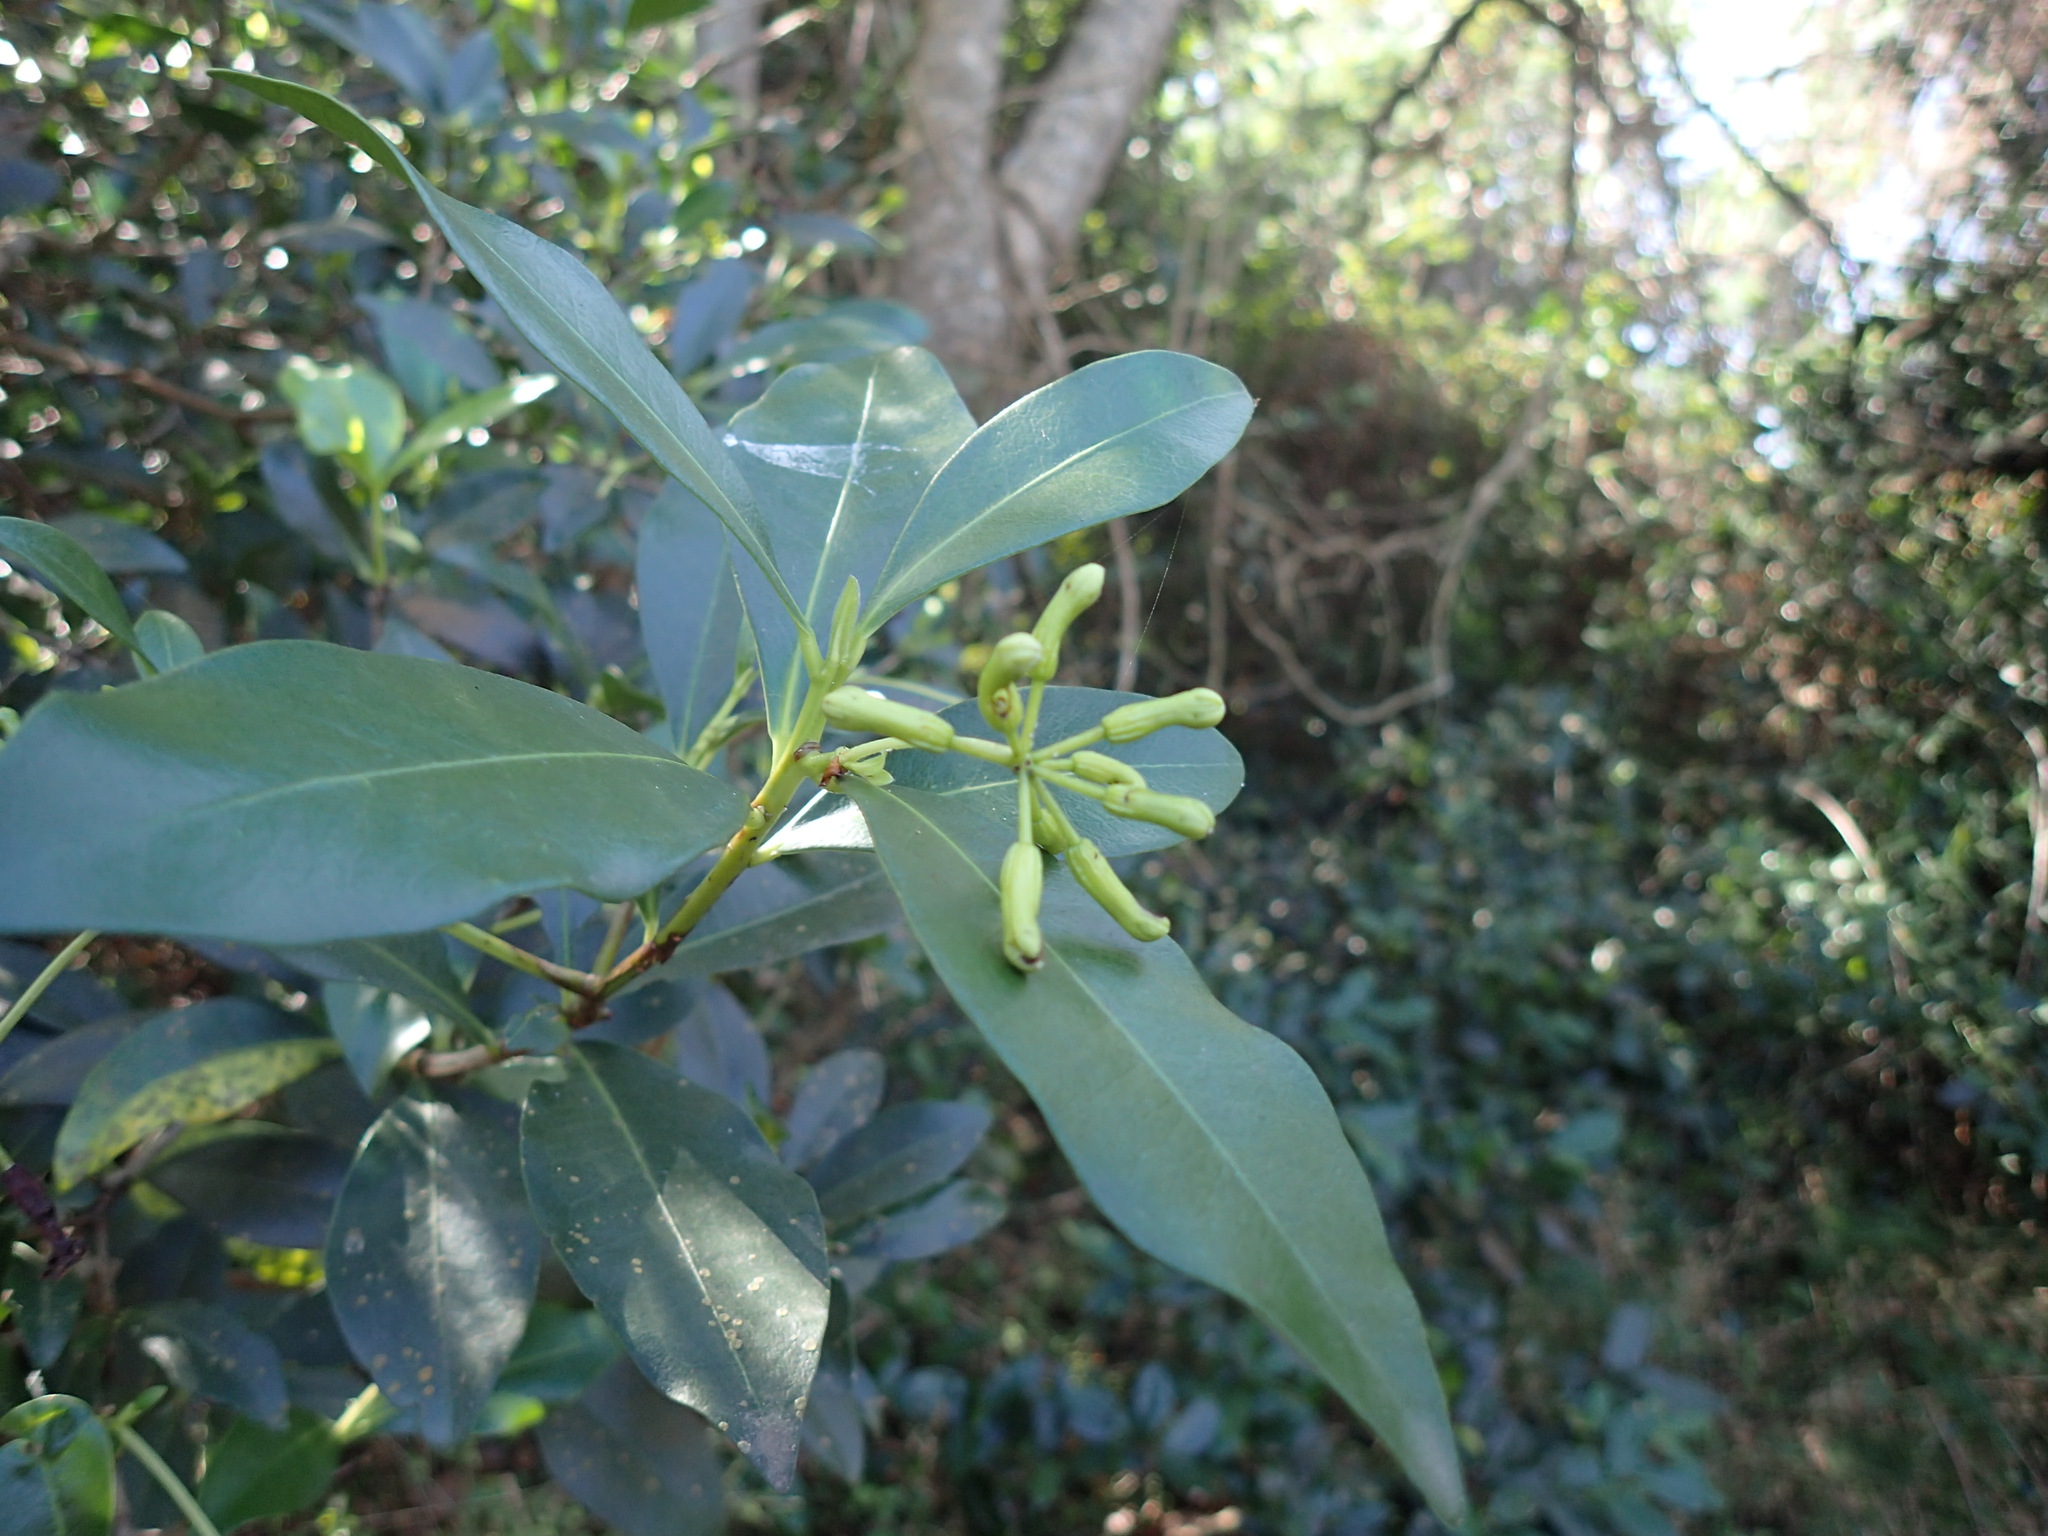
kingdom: Plantae
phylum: Tracheophyta
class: Magnoliopsida
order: Malvales
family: Thymelaeaceae
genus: Peddiea
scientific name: Peddiea africana
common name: Poison olive
